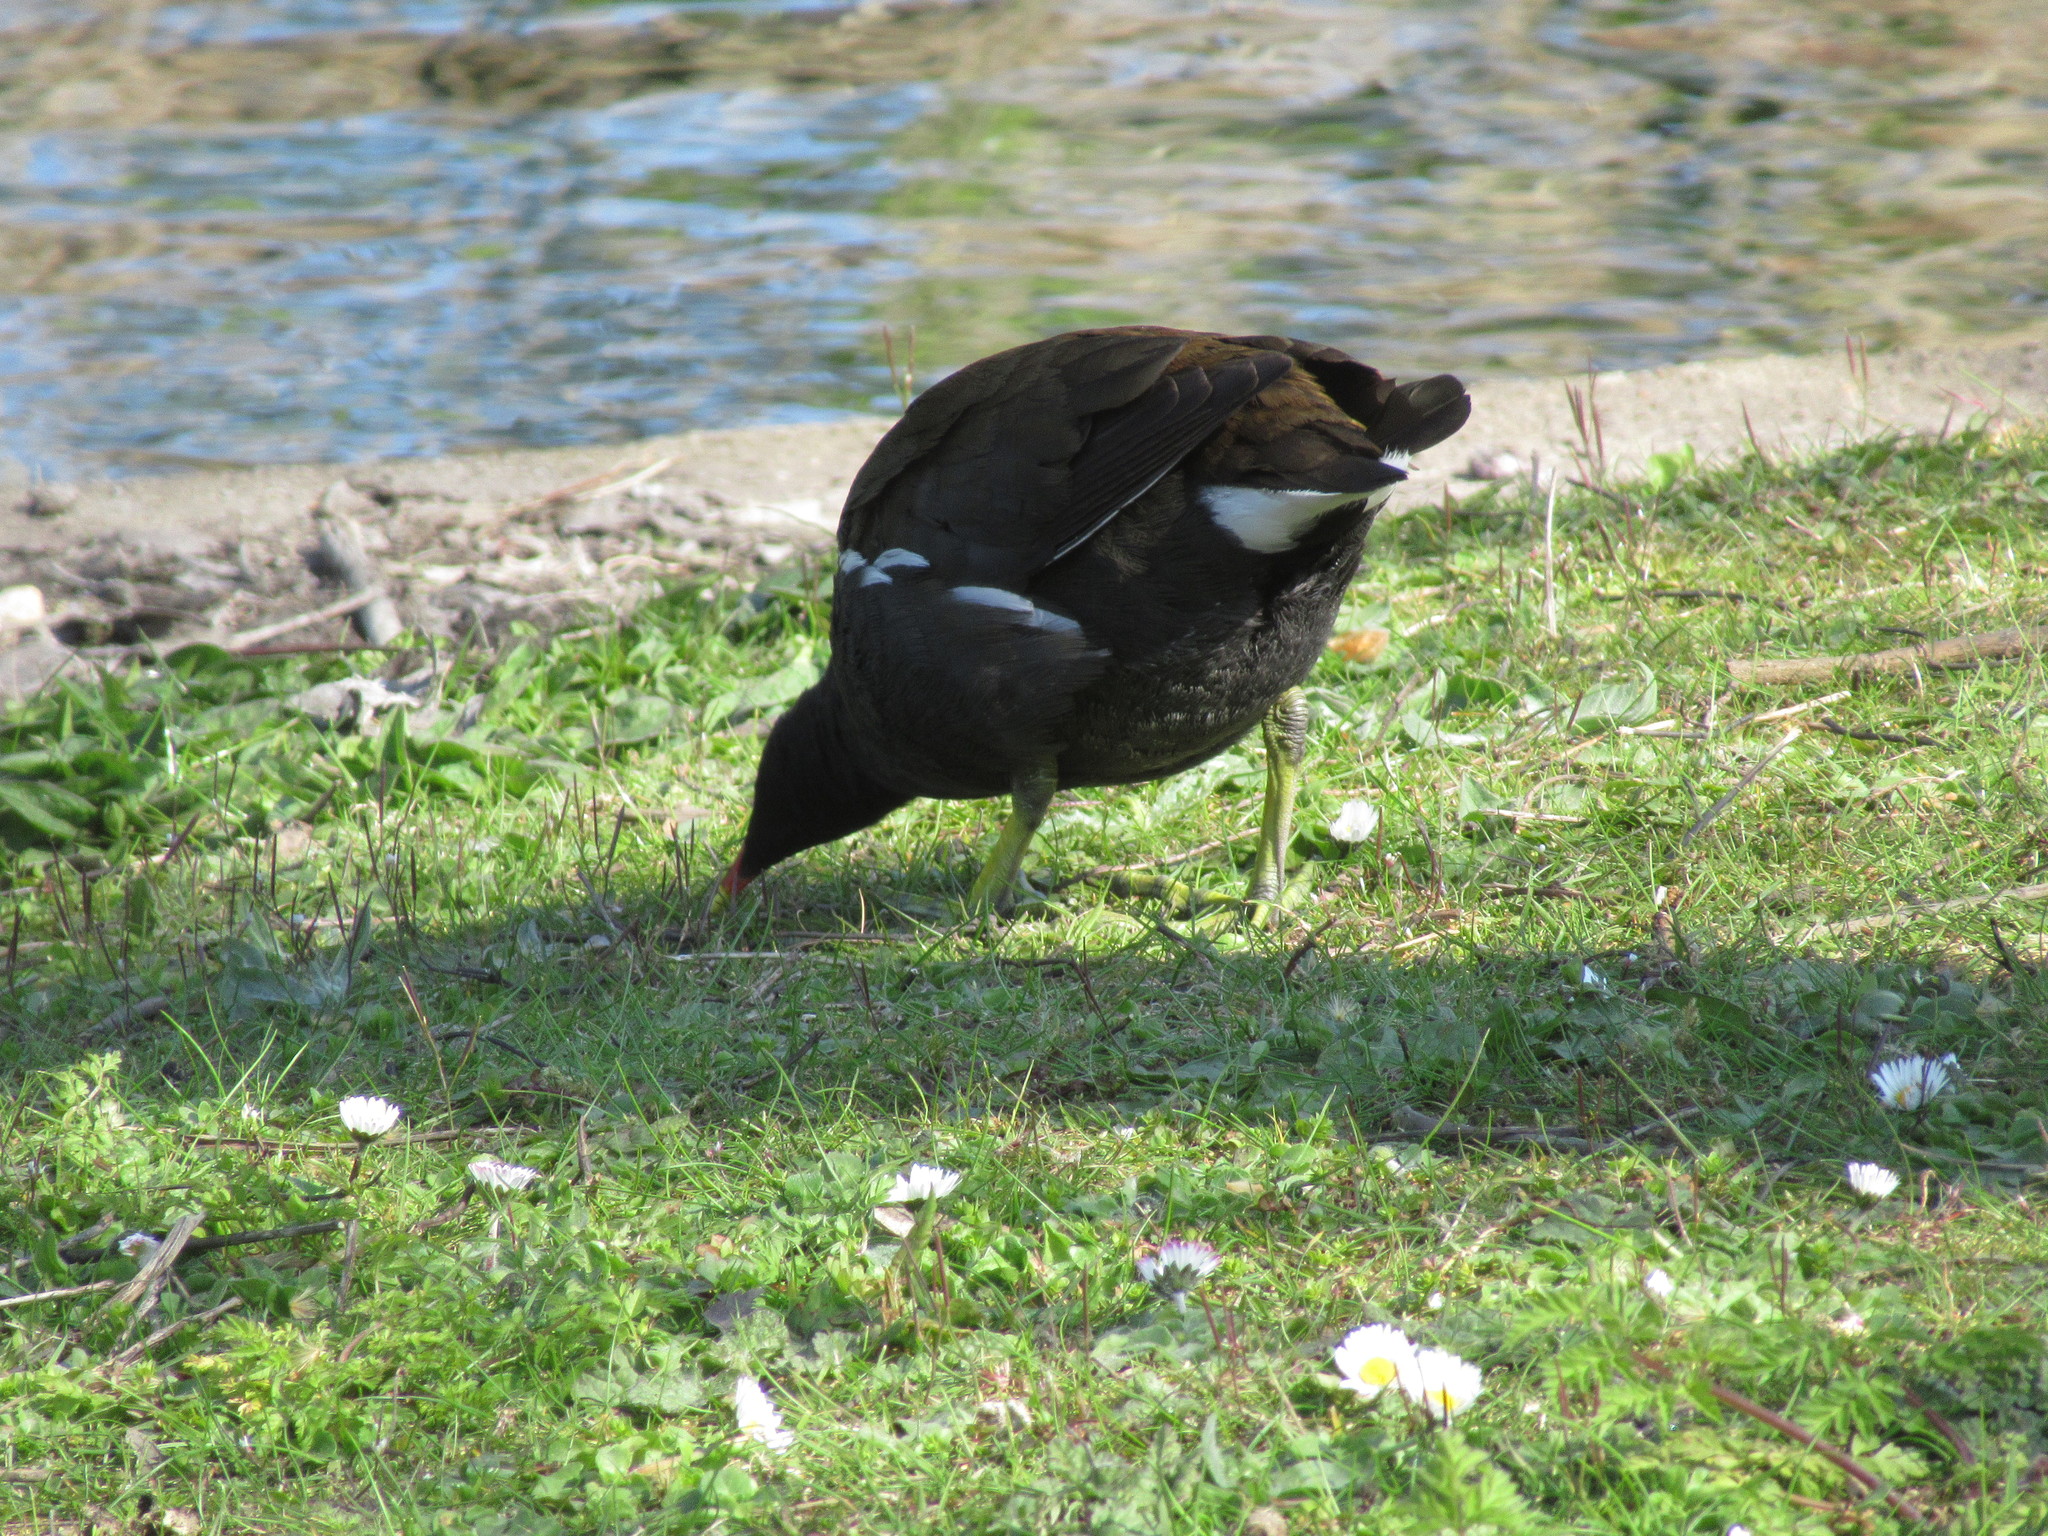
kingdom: Animalia
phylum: Chordata
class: Aves
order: Gruiformes
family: Rallidae
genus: Gallinula
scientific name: Gallinula chloropus
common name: Common moorhen
